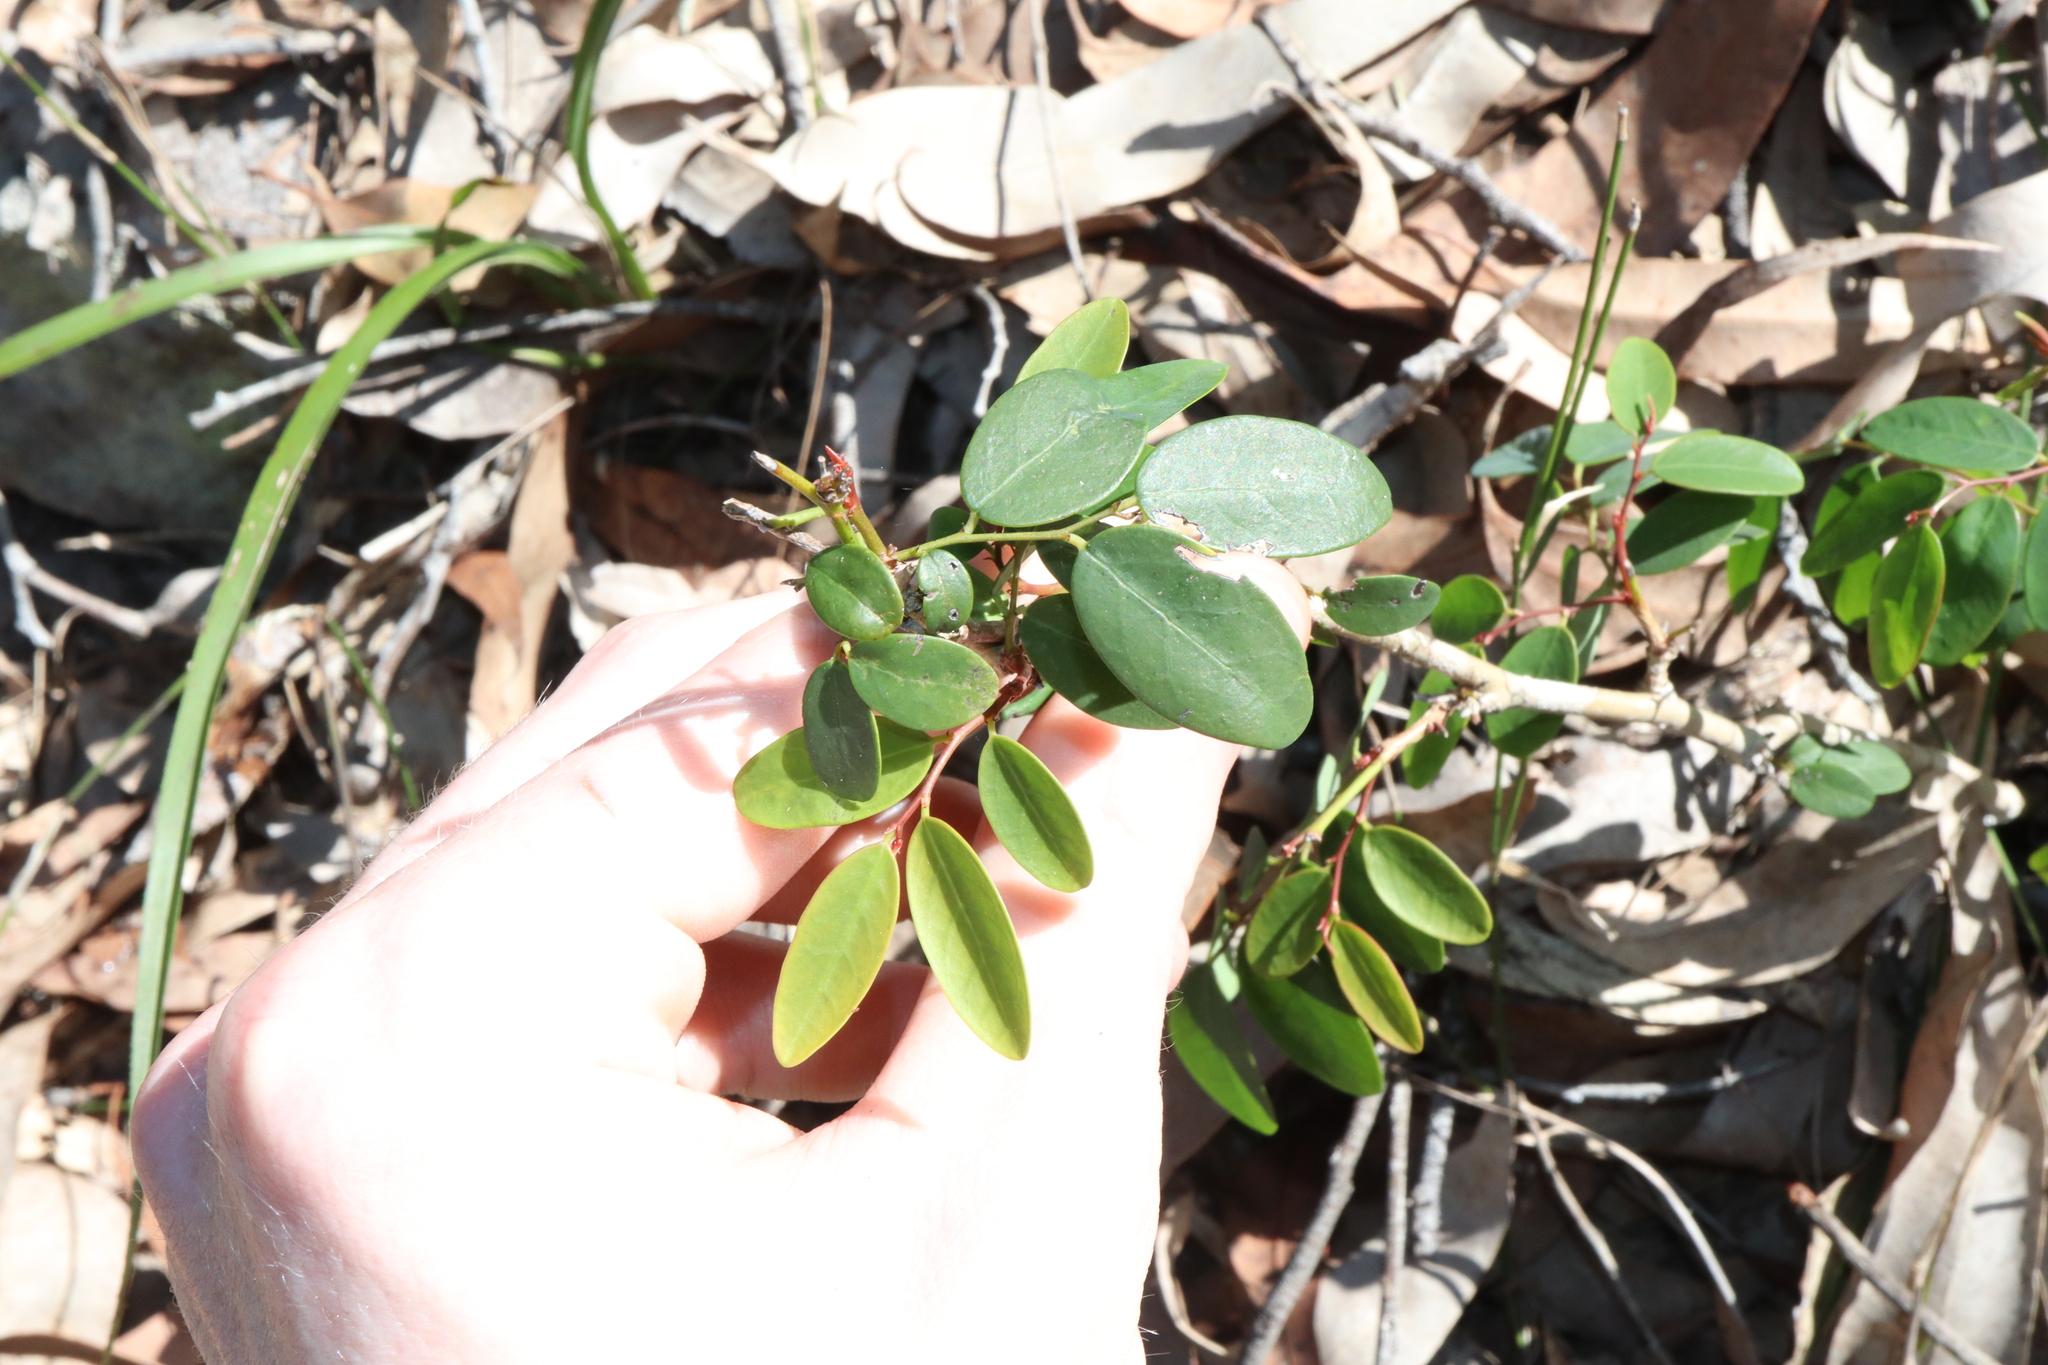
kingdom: Plantae
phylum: Tracheophyta
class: Magnoliopsida
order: Malpighiales
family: Phyllanthaceae
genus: Breynia
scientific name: Breynia oblongifolia
